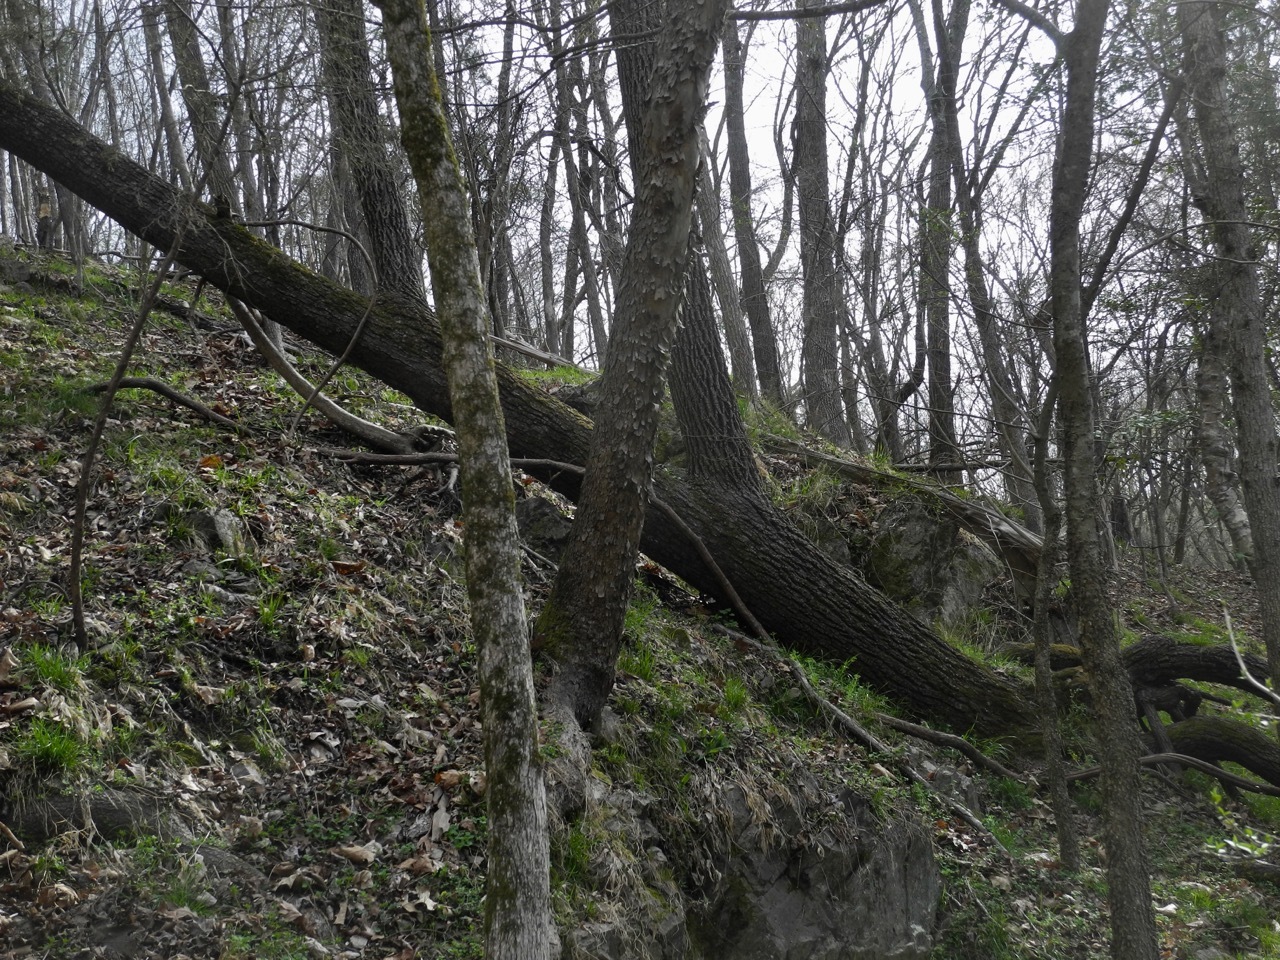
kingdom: Plantae
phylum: Tracheophyta
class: Magnoliopsida
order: Fagales
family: Juglandaceae
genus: Juglans
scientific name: Juglans nigra
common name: Black walnut
